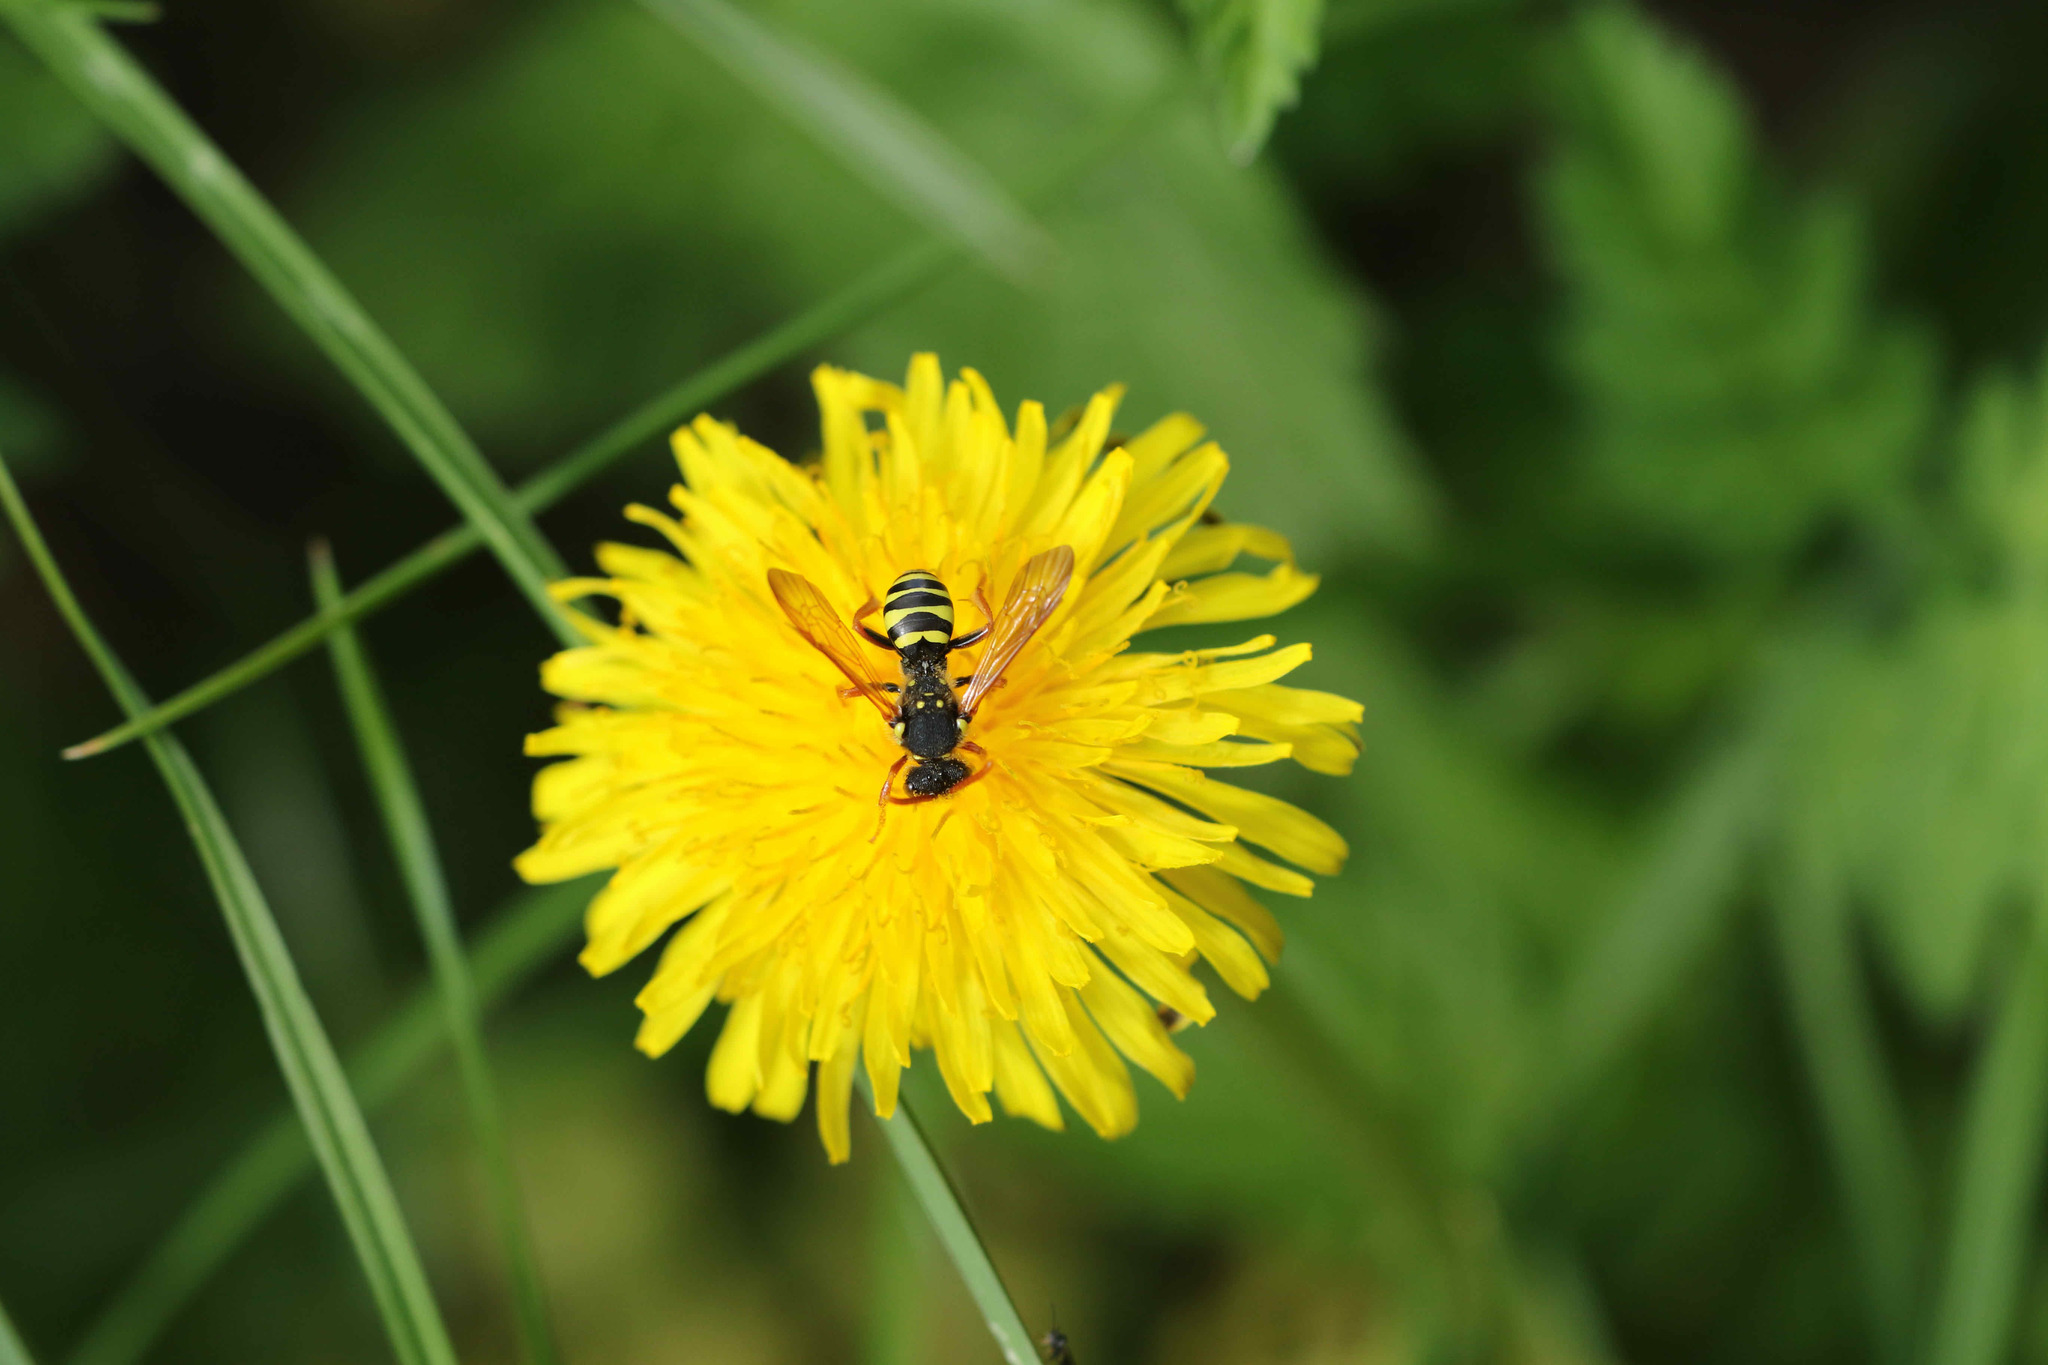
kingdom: Animalia
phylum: Arthropoda
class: Insecta
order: Hymenoptera
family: Apidae
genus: Nomada
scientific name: Nomada goodeniana
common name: Gooden's nomad bee
